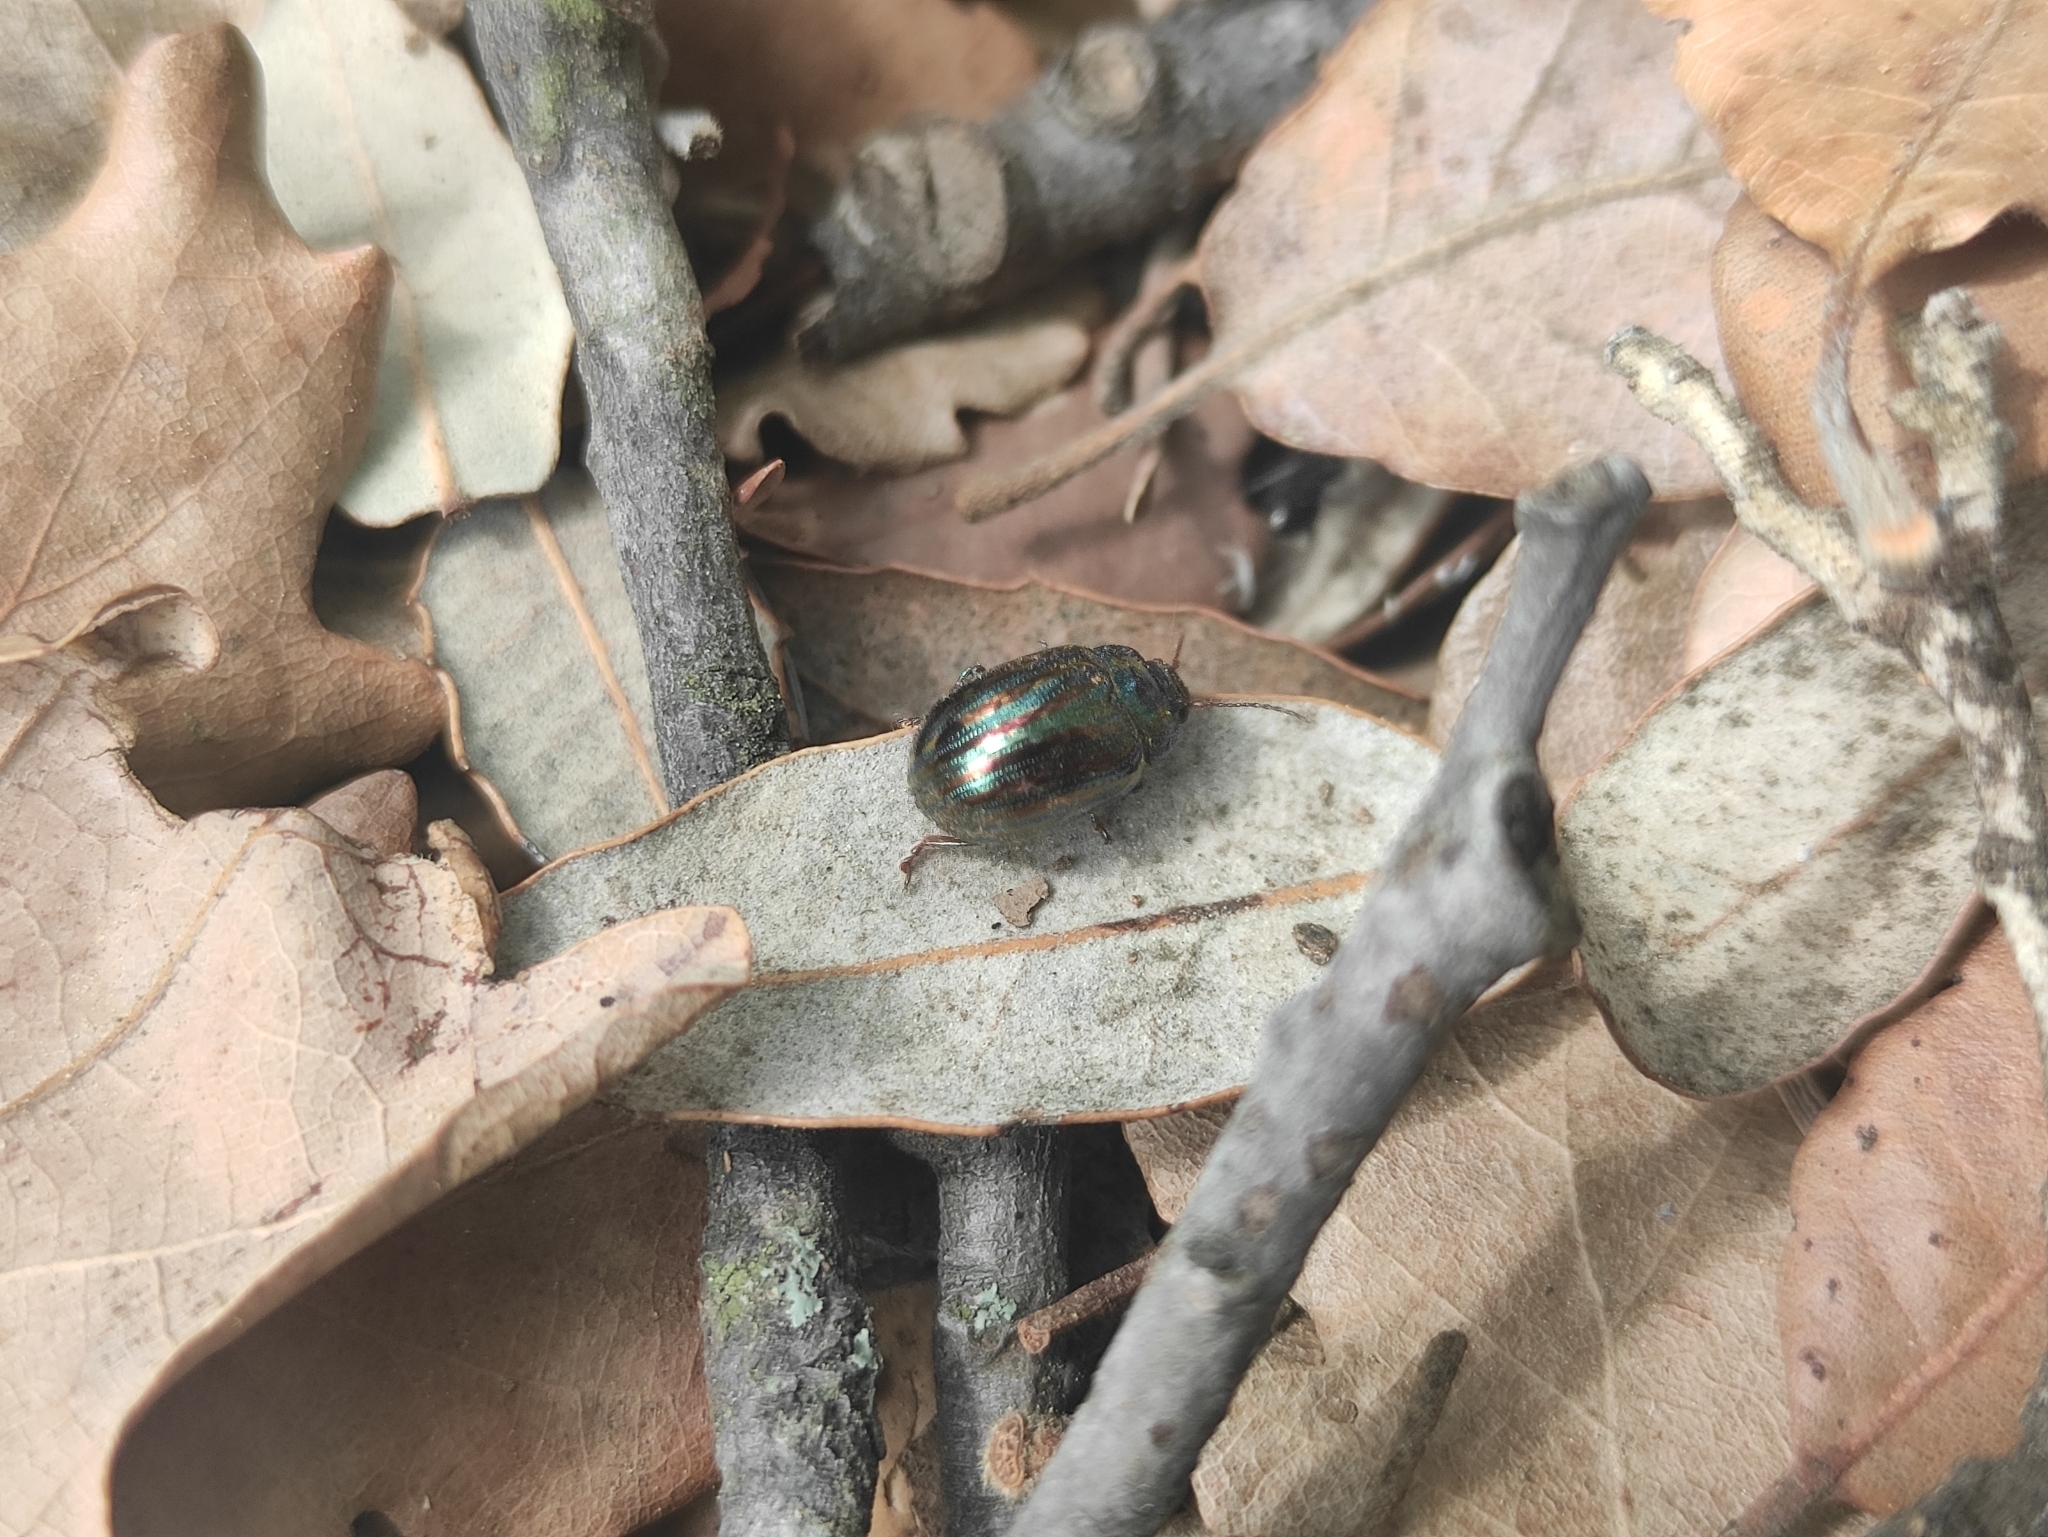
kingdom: Animalia
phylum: Arthropoda
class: Insecta
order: Coleoptera
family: Chrysomelidae
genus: Chrysolina
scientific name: Chrysolina americana
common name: Rosemary beetle
